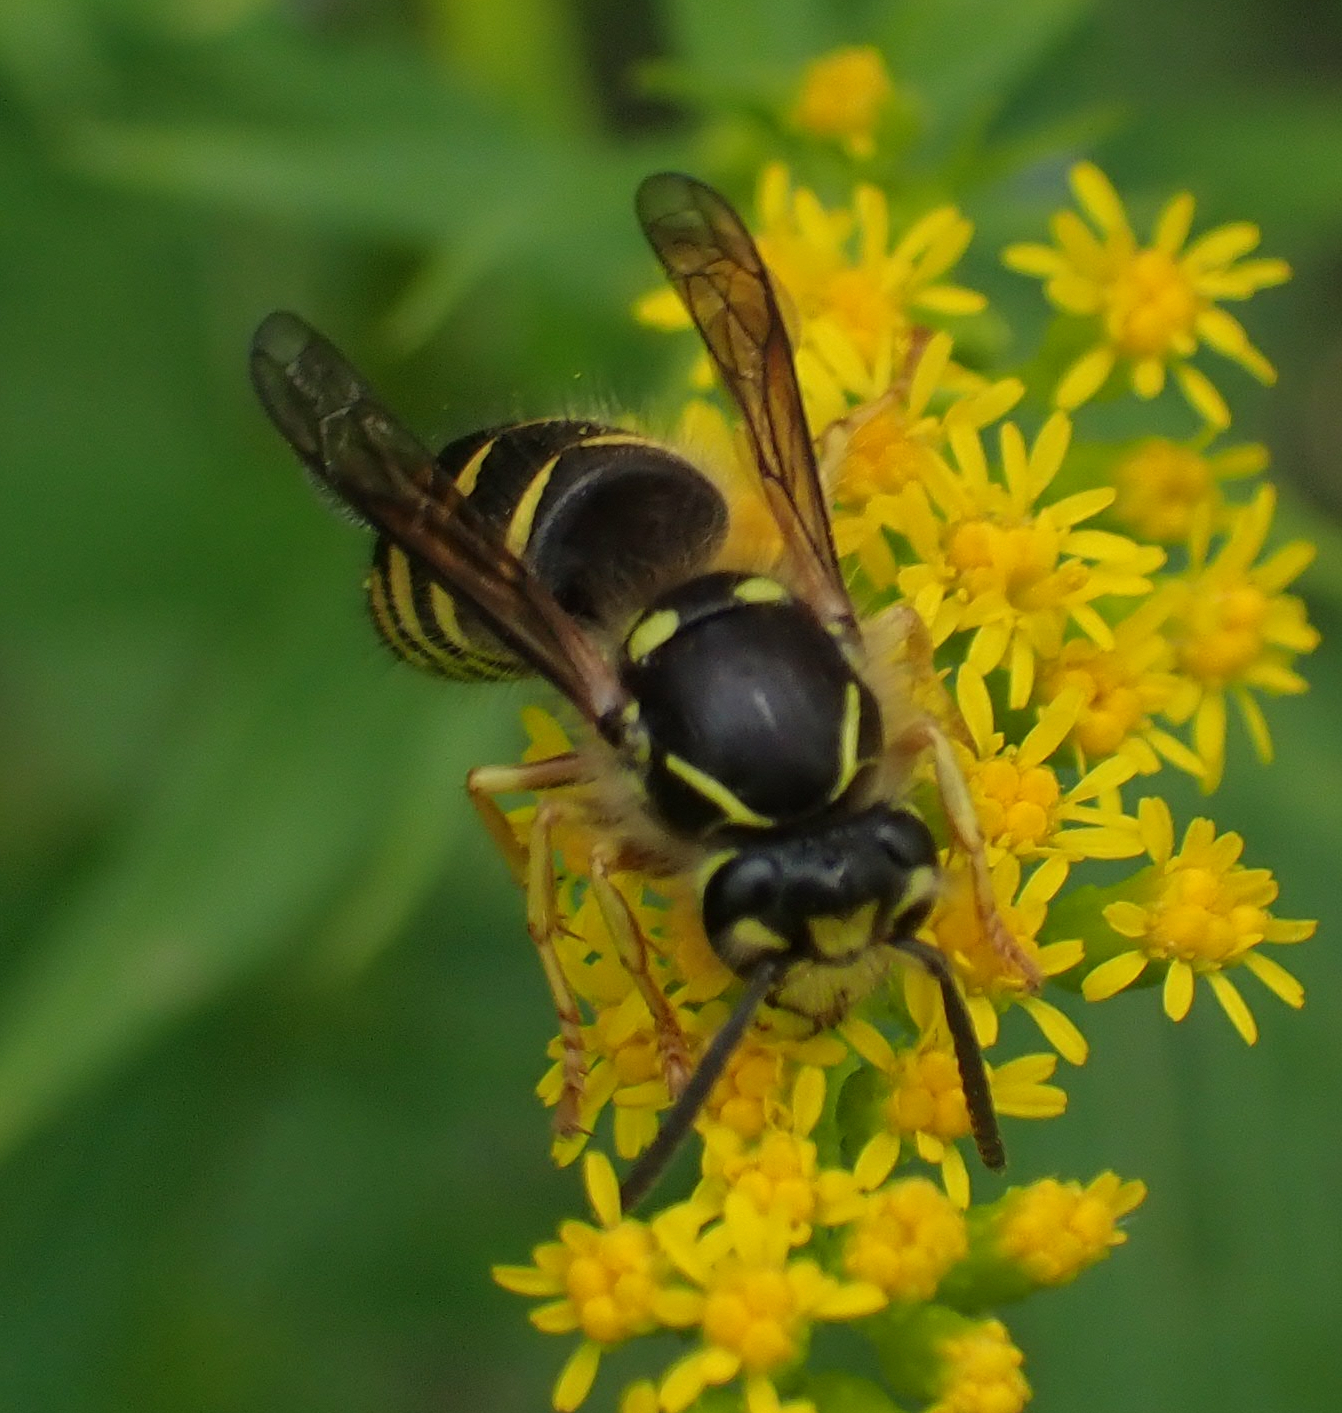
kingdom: Animalia
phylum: Arthropoda
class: Insecta
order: Hymenoptera
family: Vespidae
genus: Dolichovespula
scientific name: Dolichovespula arenaria
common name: Aerial yellowjacket
